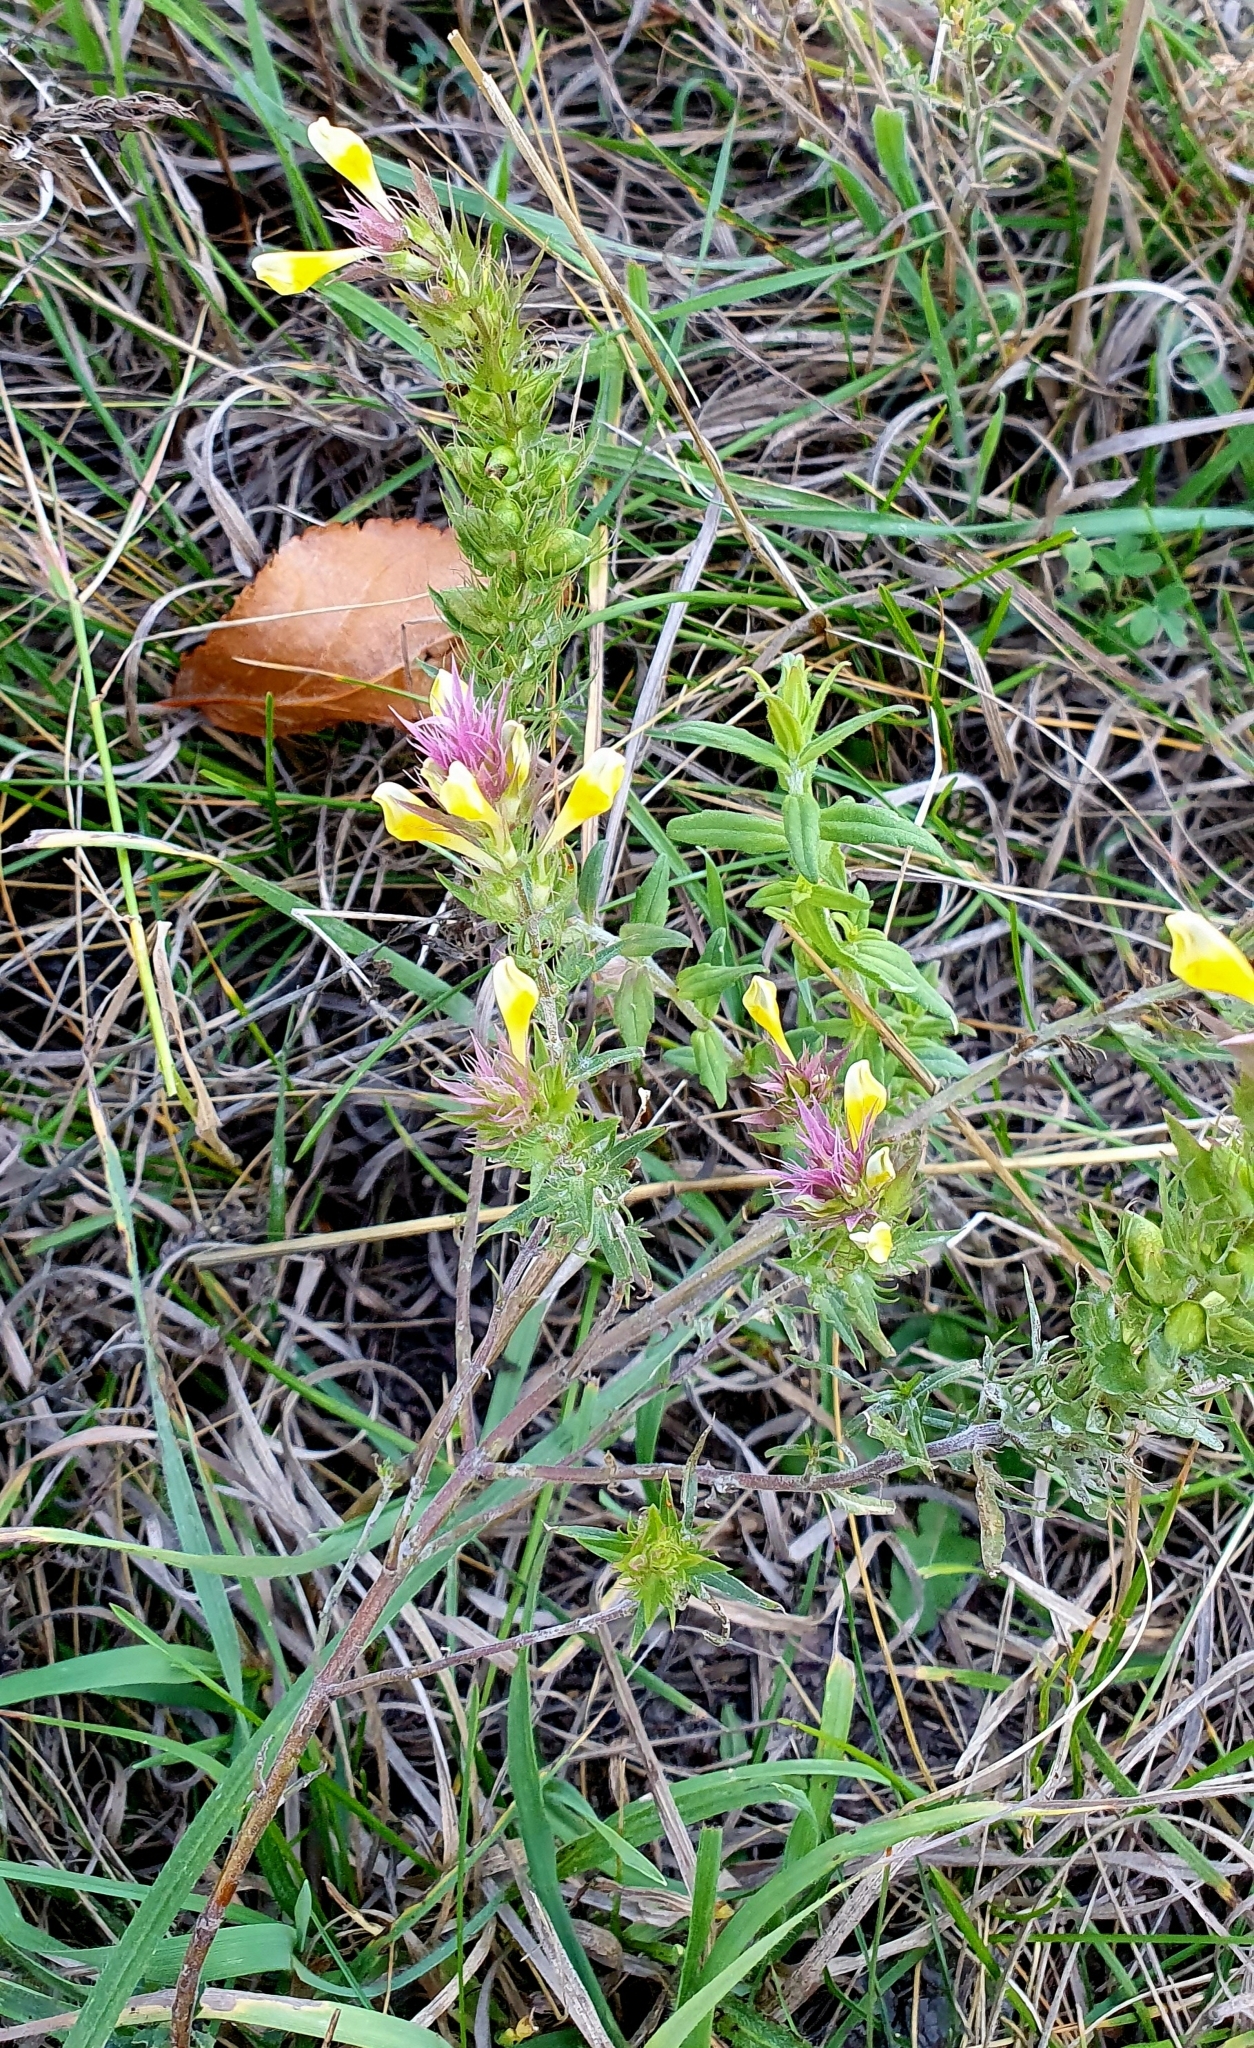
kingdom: Plantae
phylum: Tracheophyta
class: Magnoliopsida
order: Lamiales
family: Orobanchaceae
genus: Melampyrum
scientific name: Melampyrum arvense
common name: Field cow-wheat
